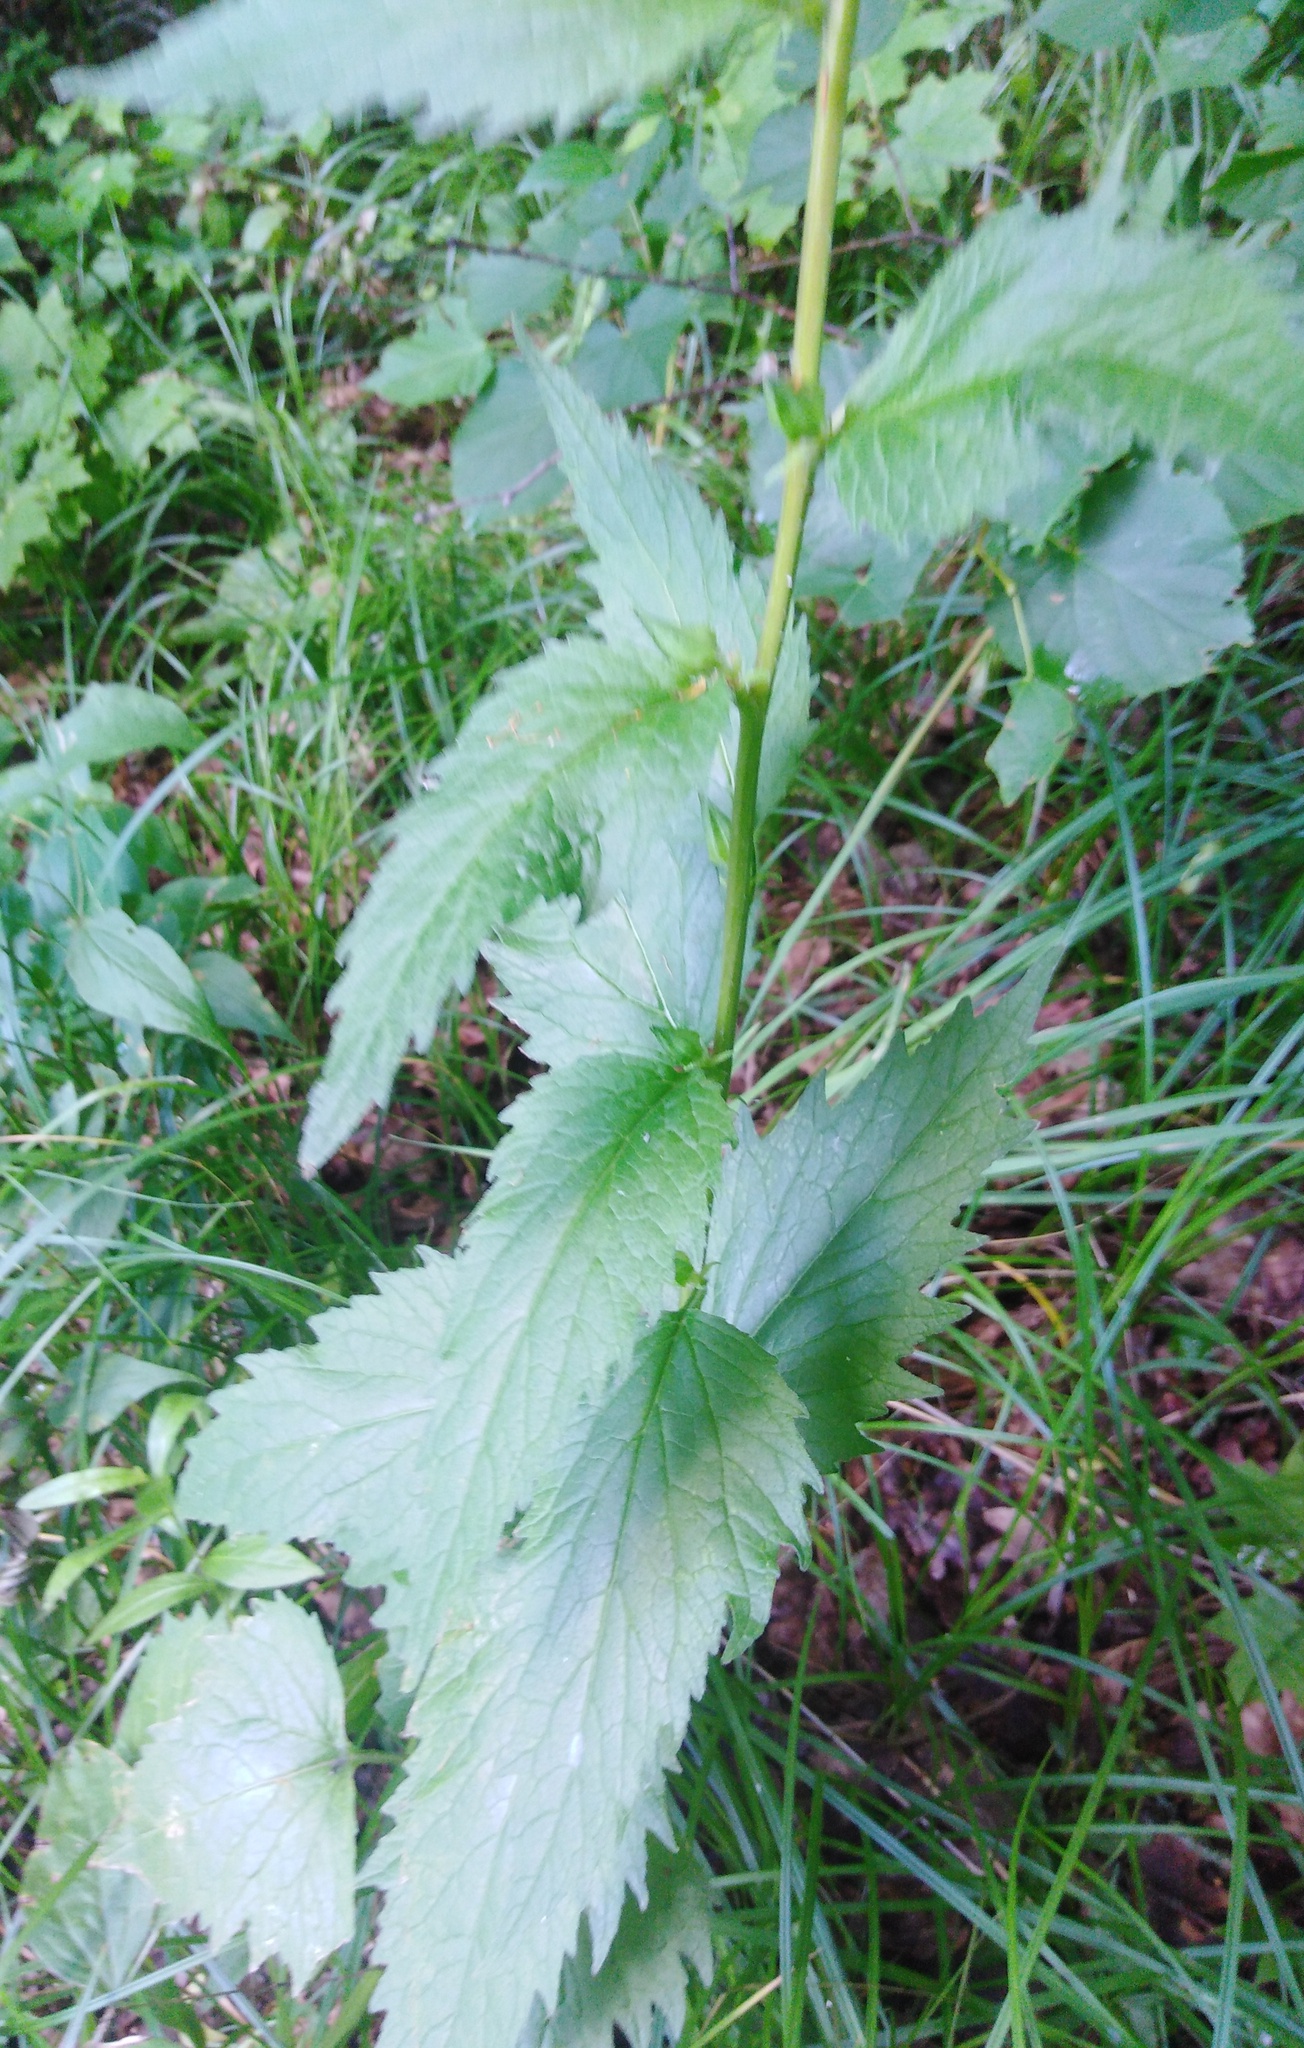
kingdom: Plantae
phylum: Tracheophyta
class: Magnoliopsida
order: Asterales
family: Campanulaceae
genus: Campanula
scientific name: Campanula trachelium
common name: Nettle-leaved bellflower
